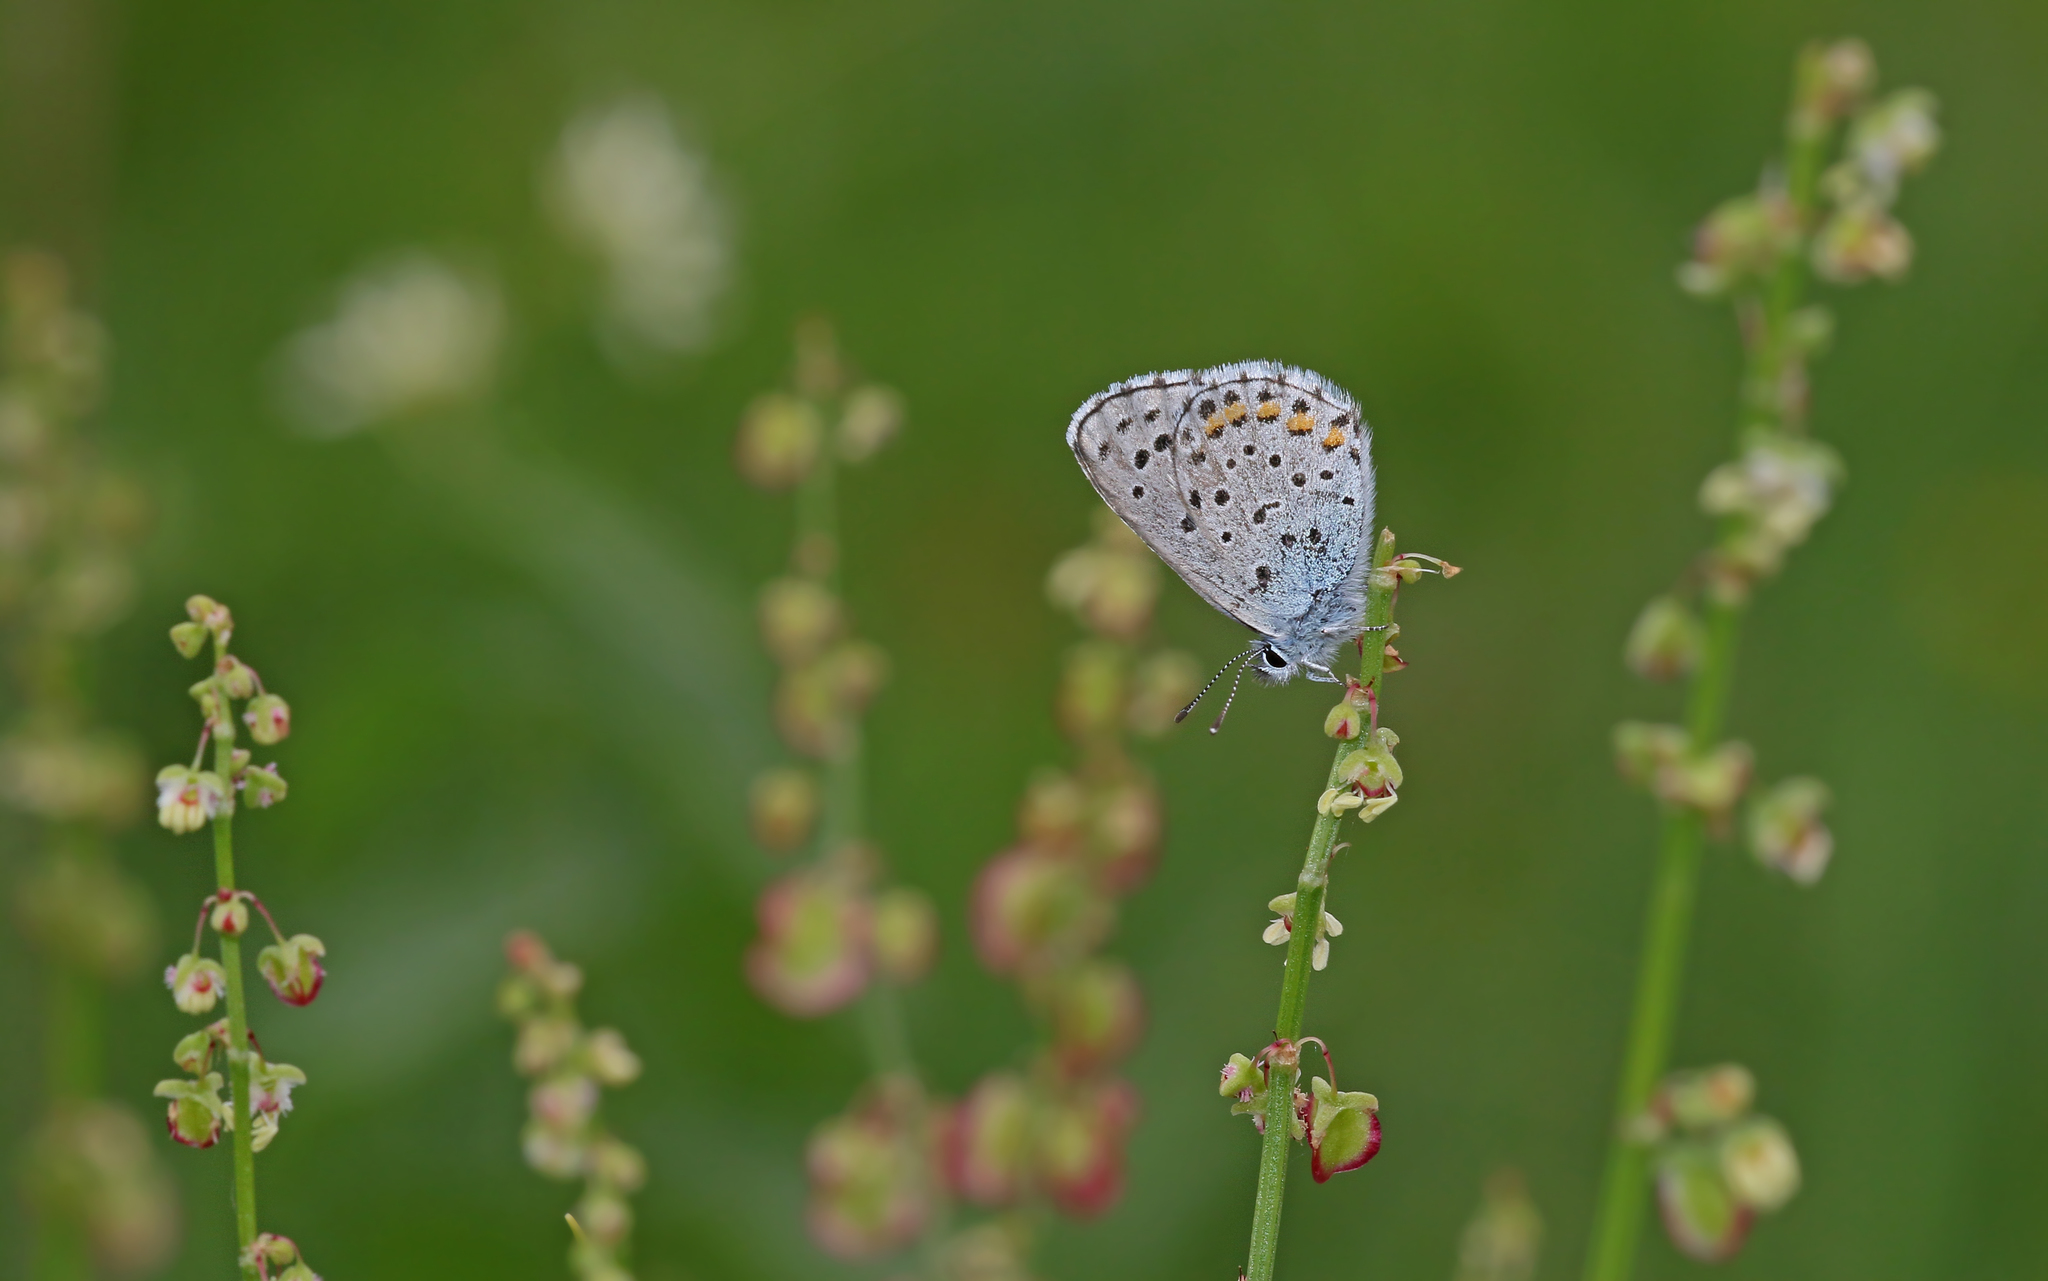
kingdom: Animalia
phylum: Arthropoda
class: Insecta
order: Lepidoptera
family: Lycaenidae
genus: Pseudophilotes
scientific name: Pseudophilotes baton
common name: Baton blue
